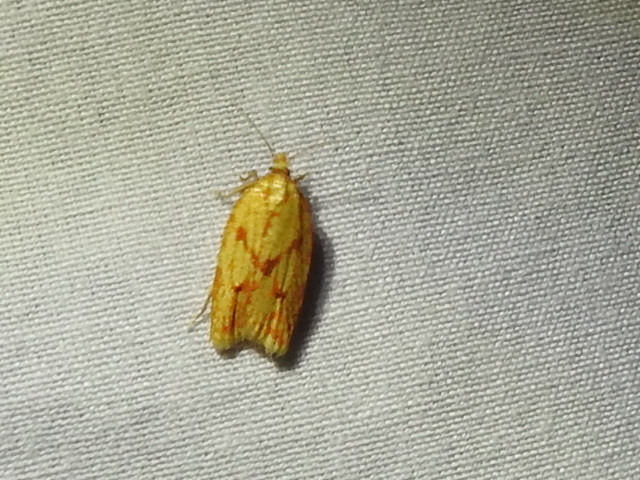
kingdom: Animalia
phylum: Arthropoda
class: Insecta
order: Lepidoptera
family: Tortricidae
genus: Sparganothis
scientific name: Sparganothis sulfureana
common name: Sparganothis fruitworm moth
